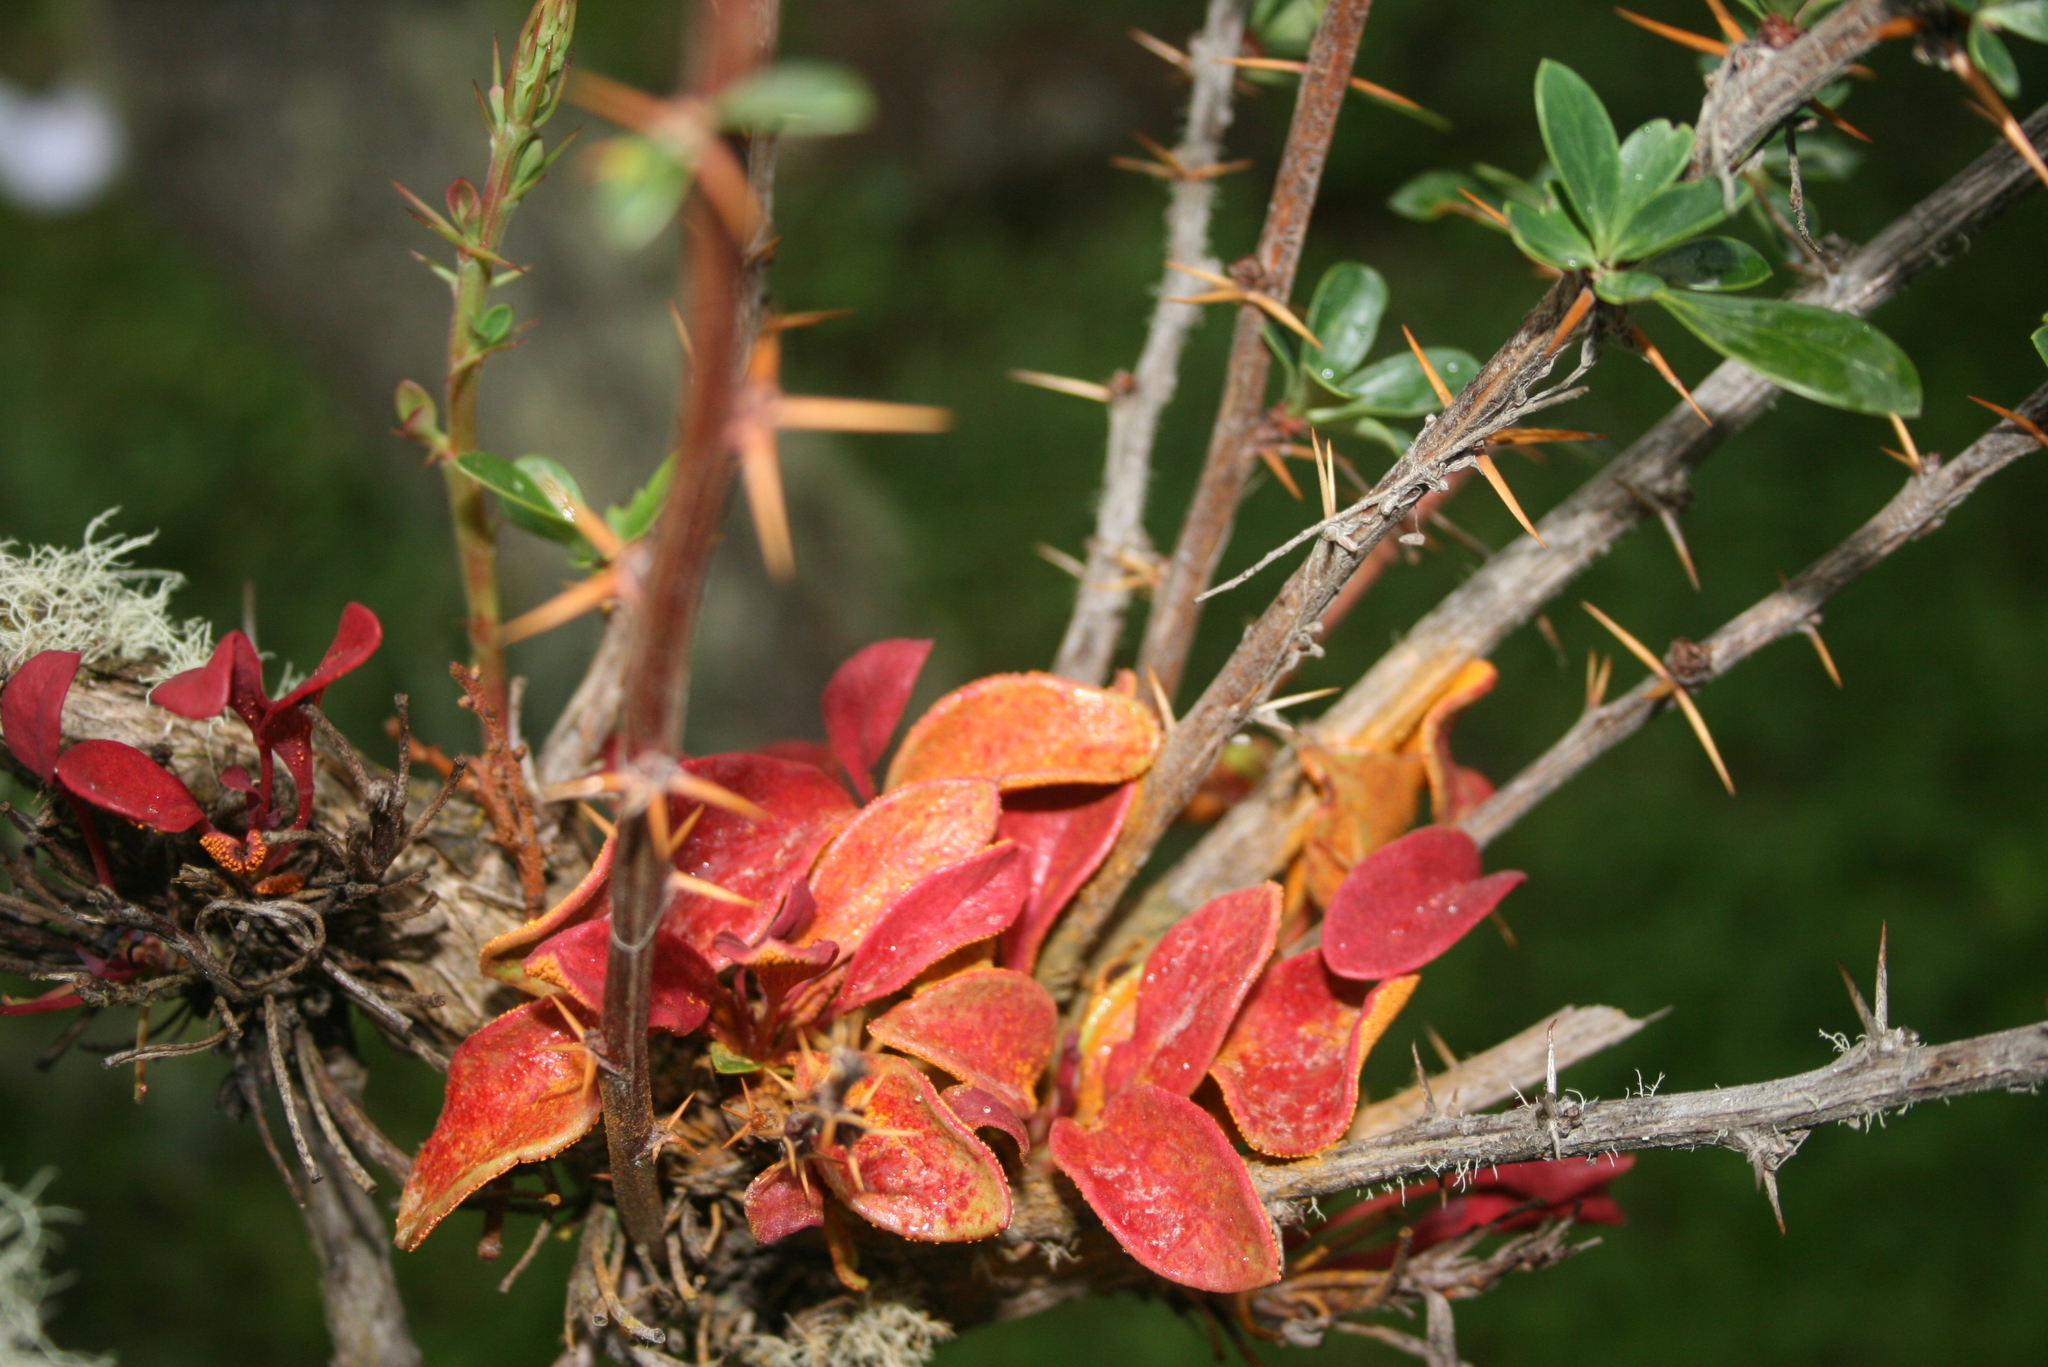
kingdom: Plantae
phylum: Tracheophyta
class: Magnoliopsida
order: Ranunculales
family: Berberidaceae
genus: Berberis
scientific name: Berberis microphylla
